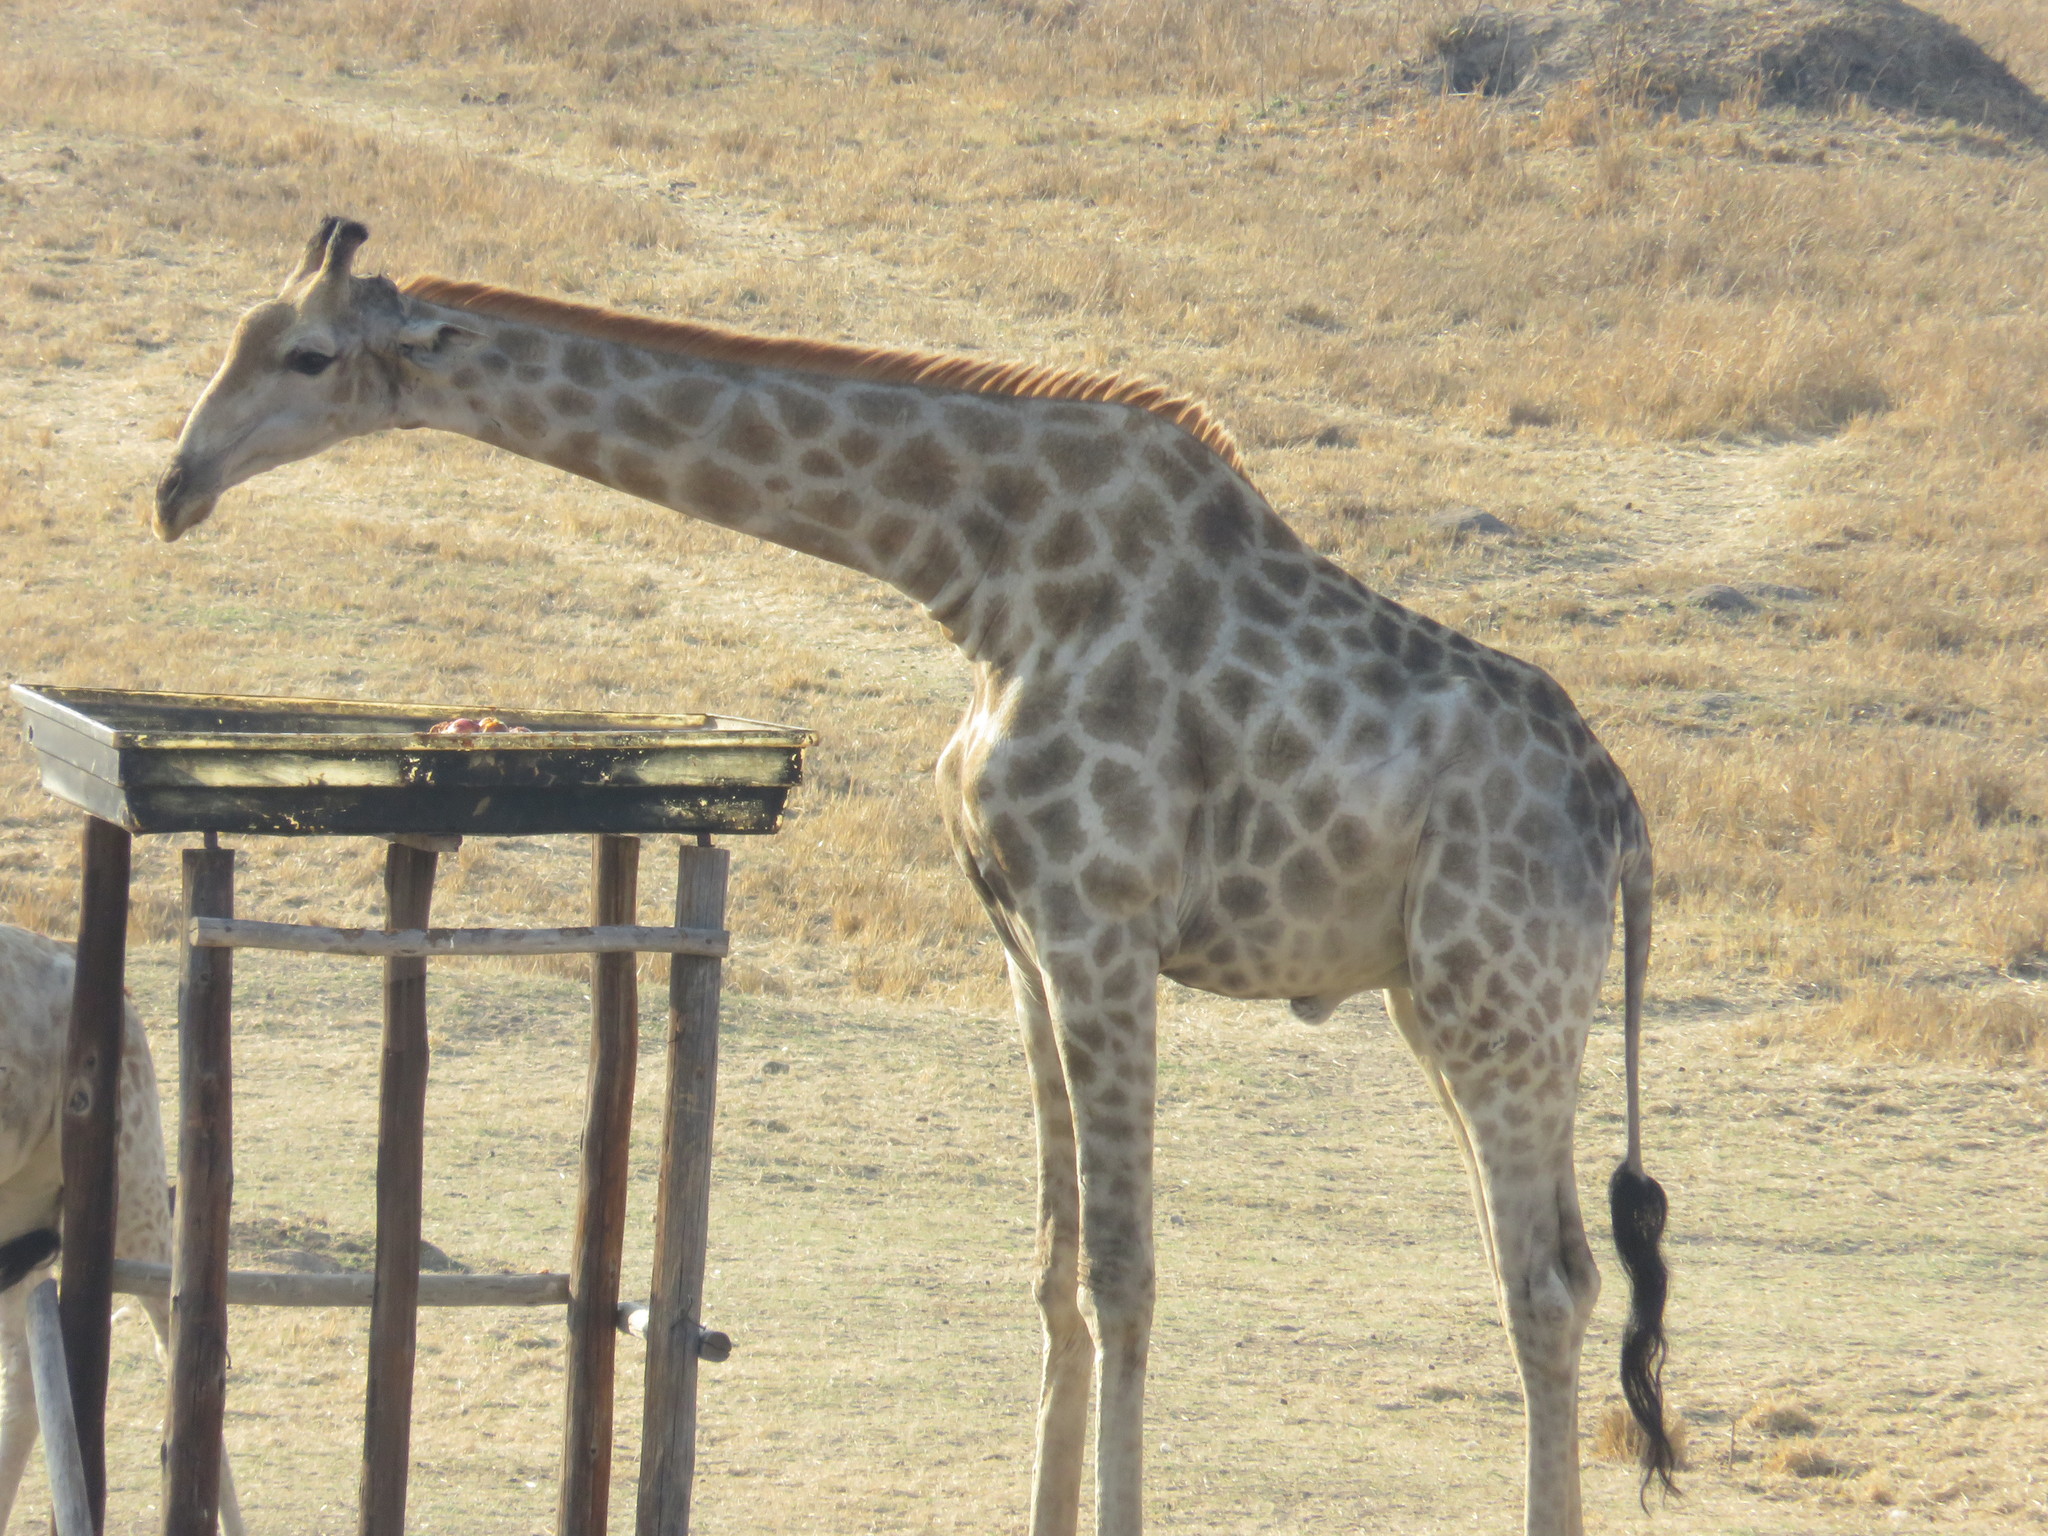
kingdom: Animalia
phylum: Chordata
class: Mammalia
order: Artiodactyla
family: Giraffidae
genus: Giraffa
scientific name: Giraffa giraffa
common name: Southern giraffe
